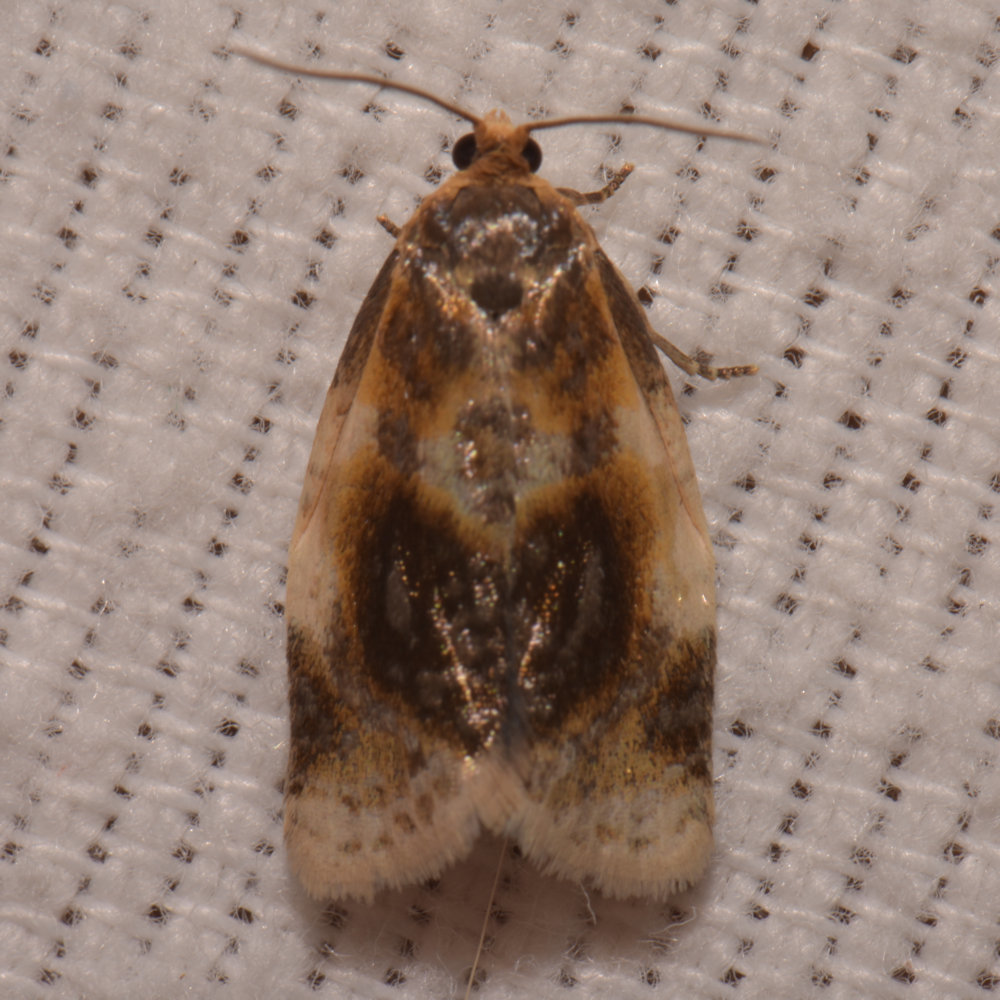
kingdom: Animalia
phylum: Arthropoda
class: Insecta
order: Lepidoptera
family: Tortricidae
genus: Clepsis
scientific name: Clepsis melaleucanus
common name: American apple tortrix
